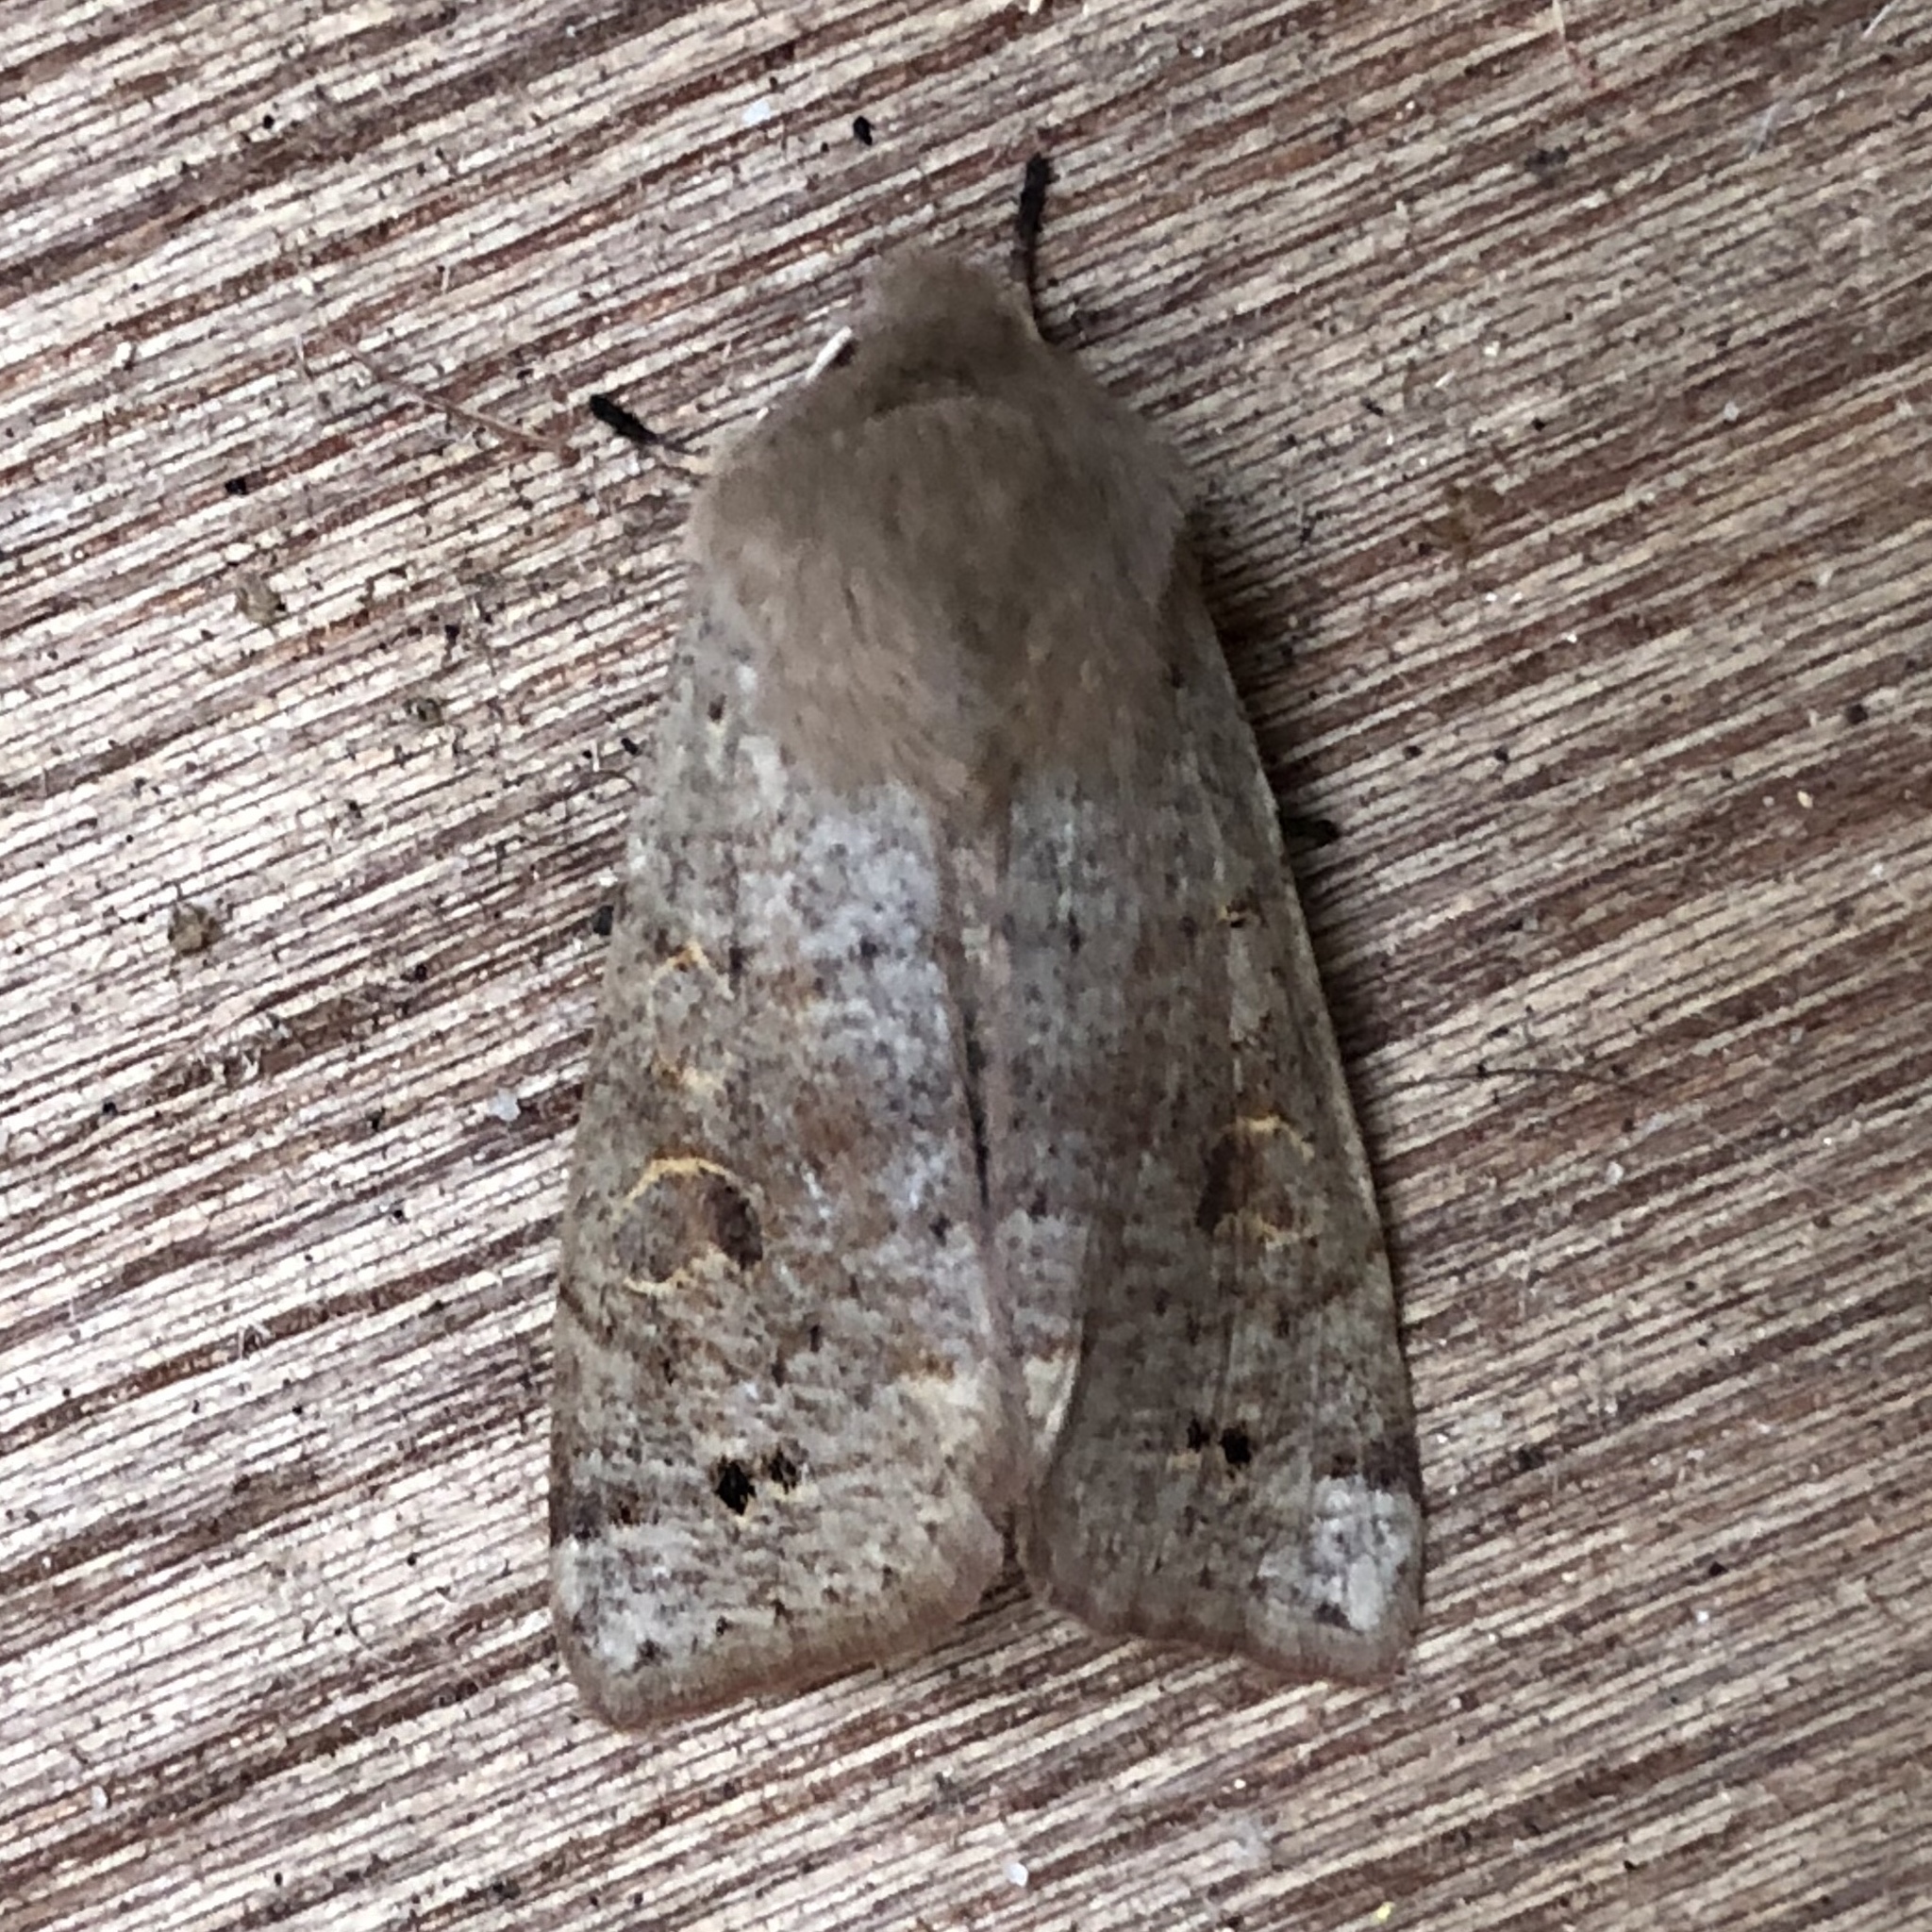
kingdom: Animalia
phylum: Arthropoda
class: Insecta
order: Lepidoptera
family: Noctuidae
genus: Anorthoa
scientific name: Anorthoa munda
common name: Twin-spotted quaker
